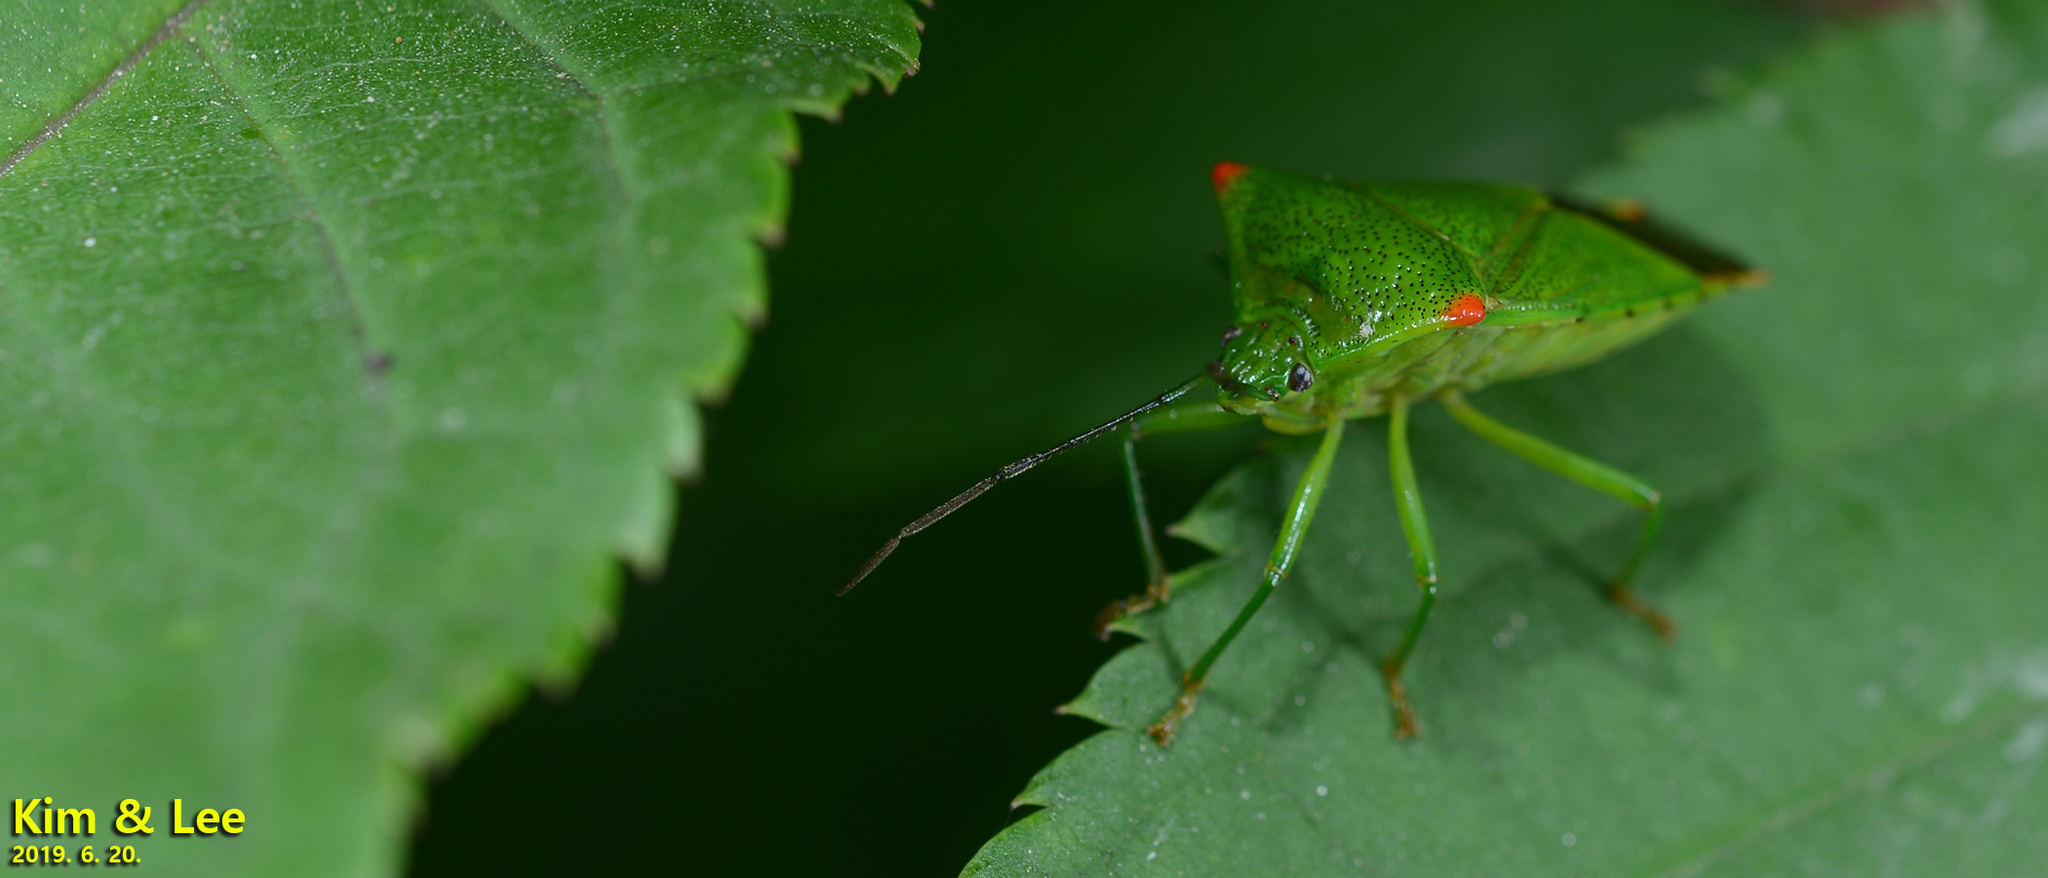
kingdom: Animalia
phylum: Arthropoda
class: Insecta
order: Hemiptera
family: Acanthosomatidae
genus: Acanthosoma
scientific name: Acanthosoma labiduroides
